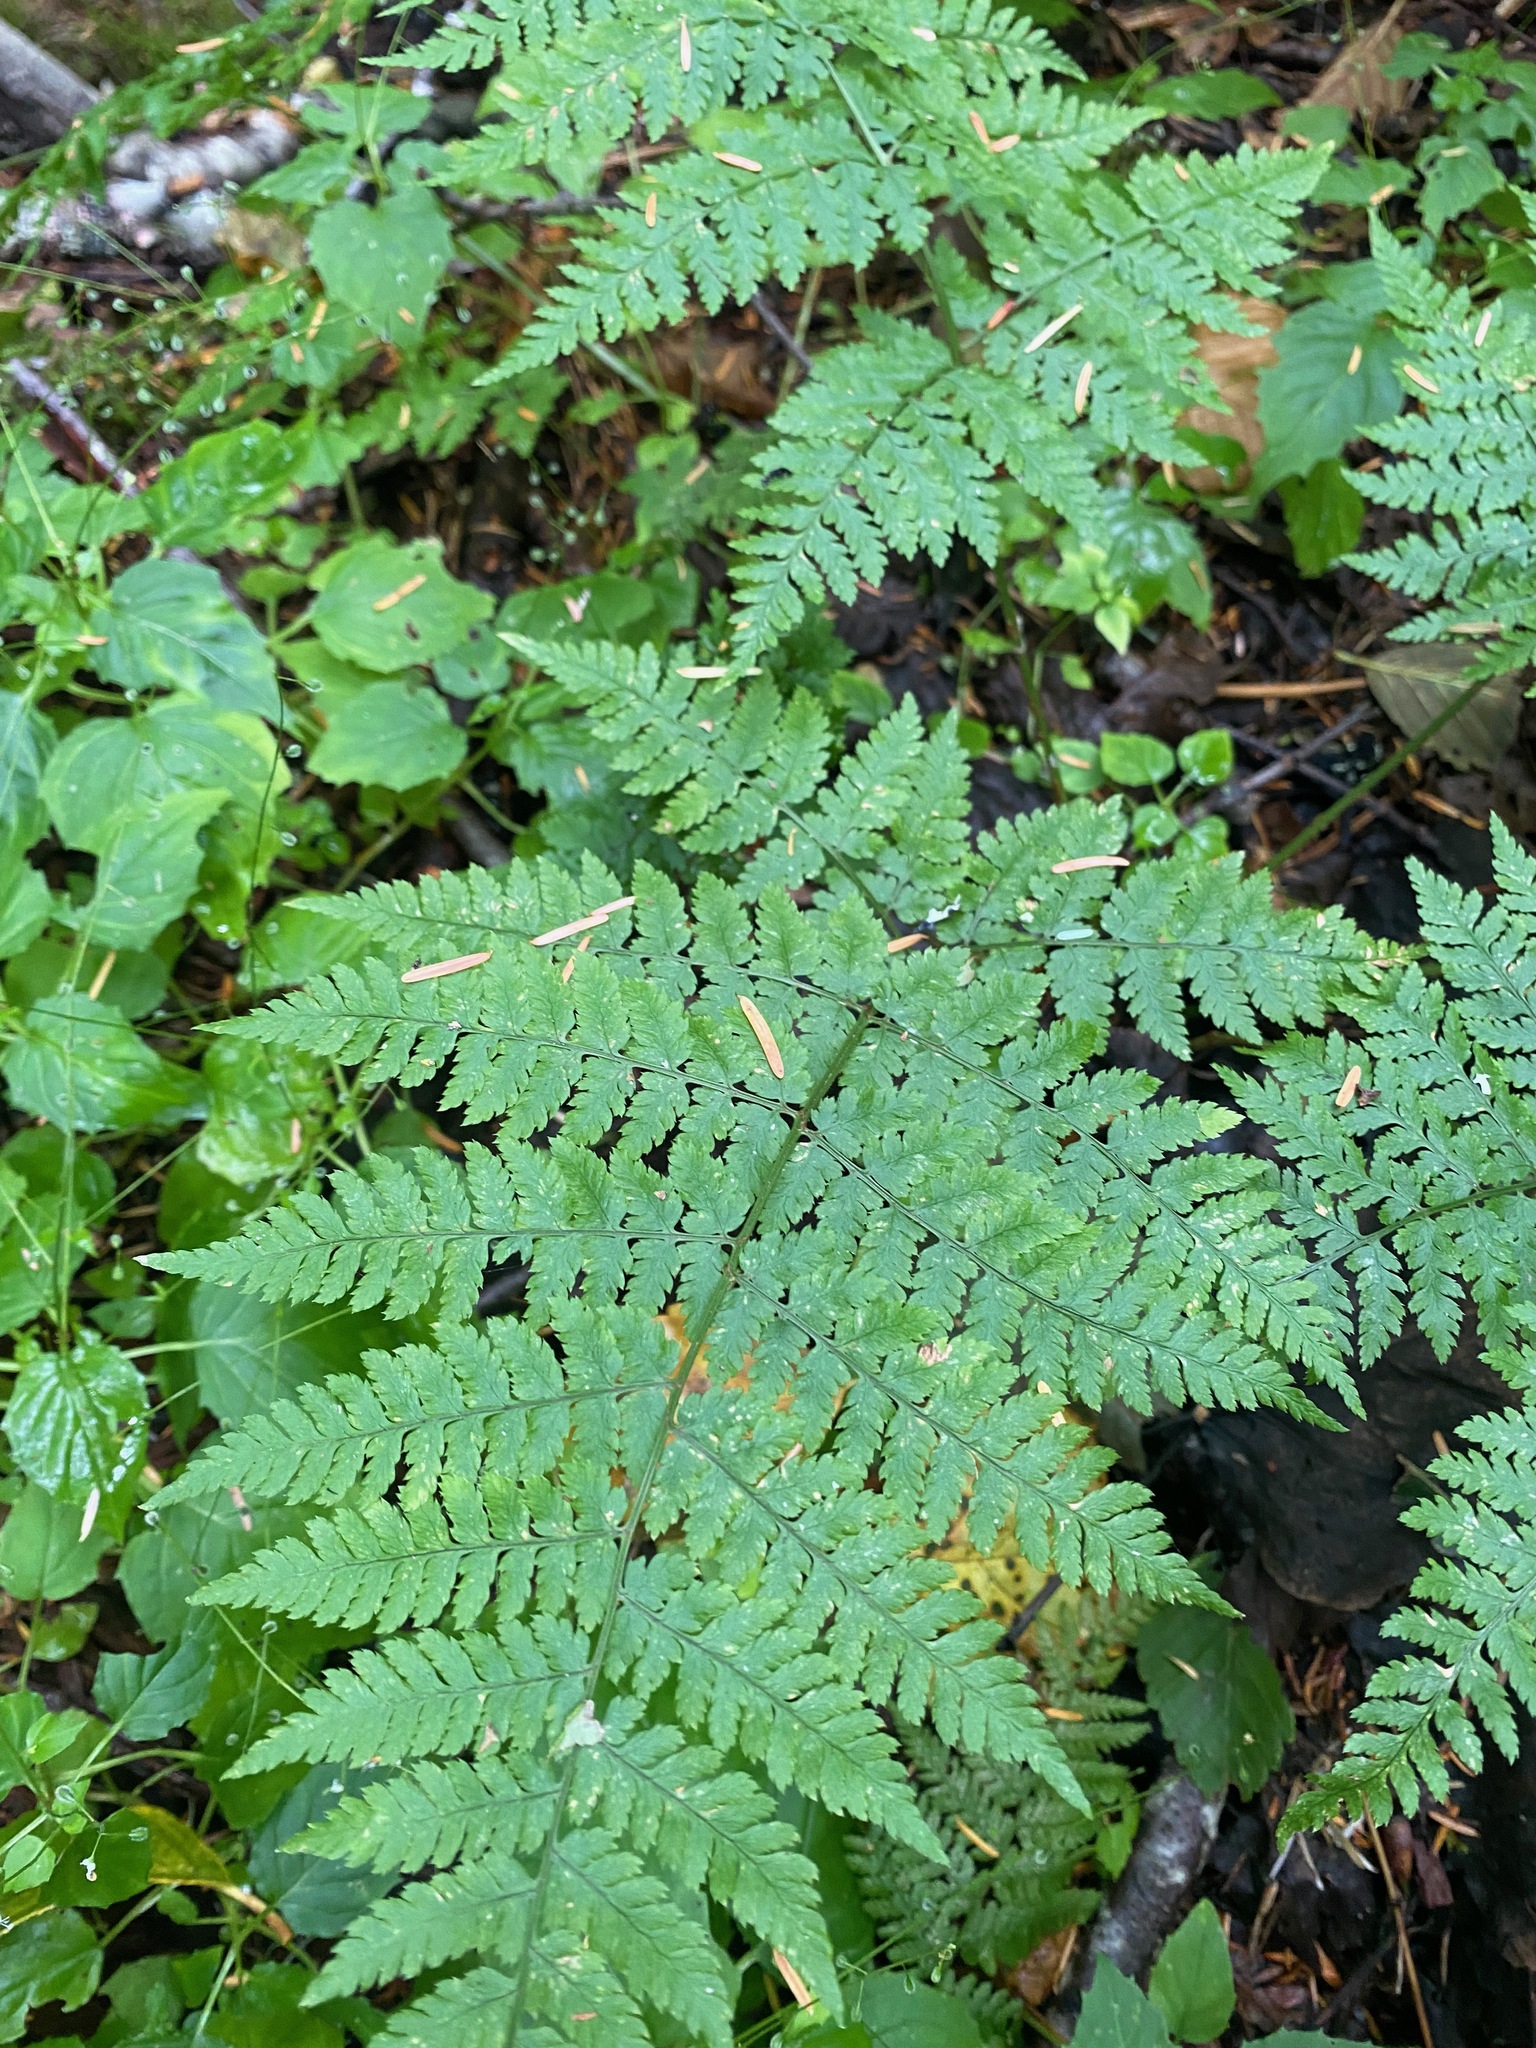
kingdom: Plantae
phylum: Tracheophyta
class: Polypodiopsida
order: Polypodiales
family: Dryopteridaceae
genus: Dryopteris
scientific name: Dryopteris expansa
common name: Northern buckler fern
